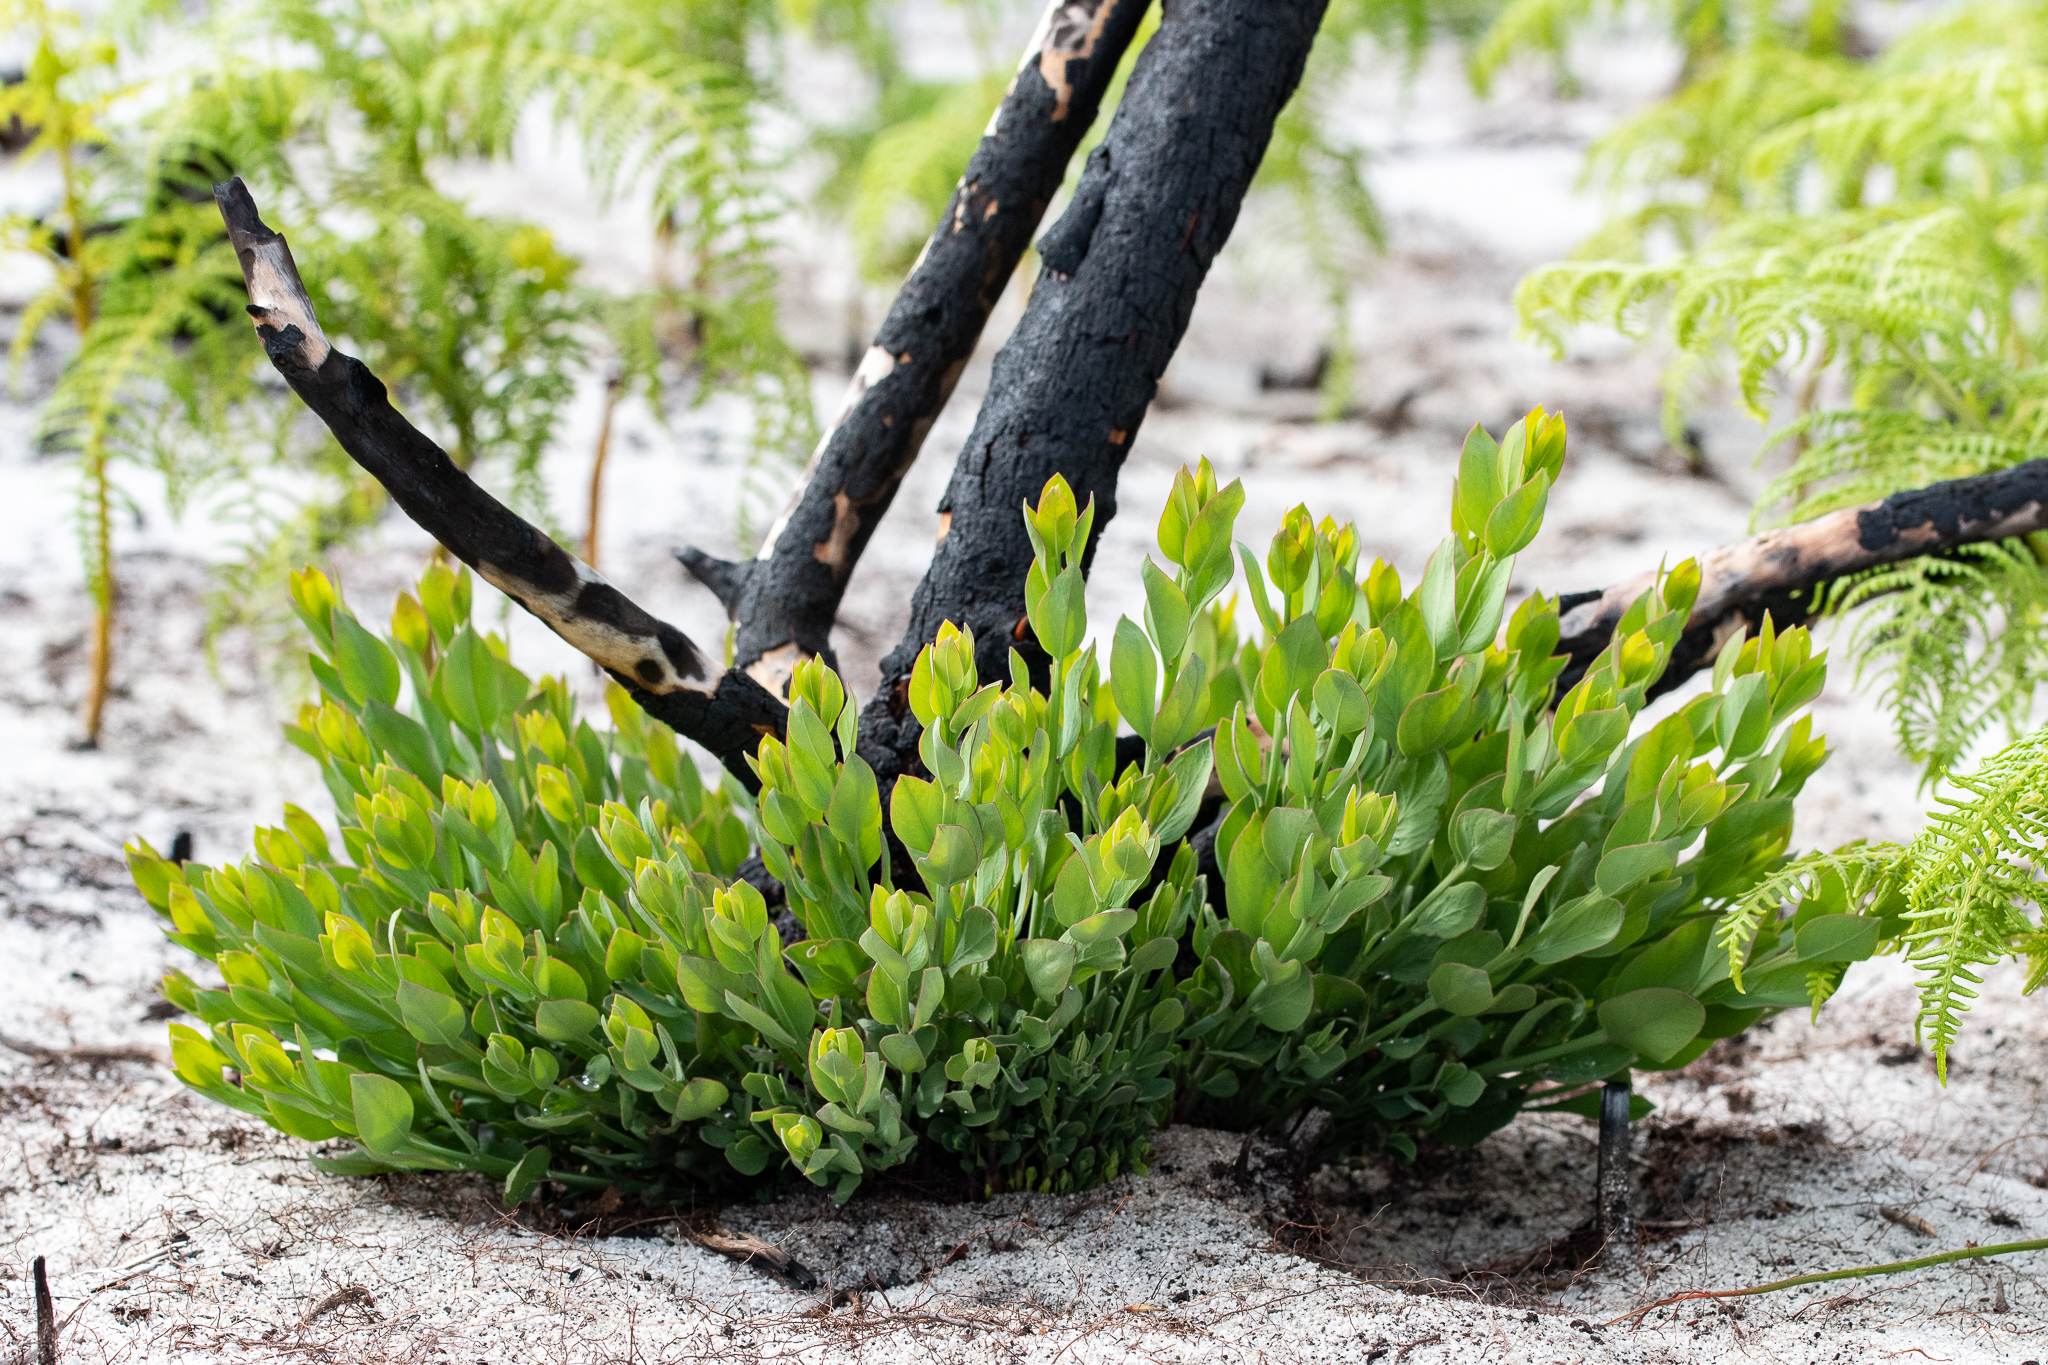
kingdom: Plantae
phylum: Tracheophyta
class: Magnoliopsida
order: Santalales
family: Santalaceae
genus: Osyris
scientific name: Osyris speciosa
